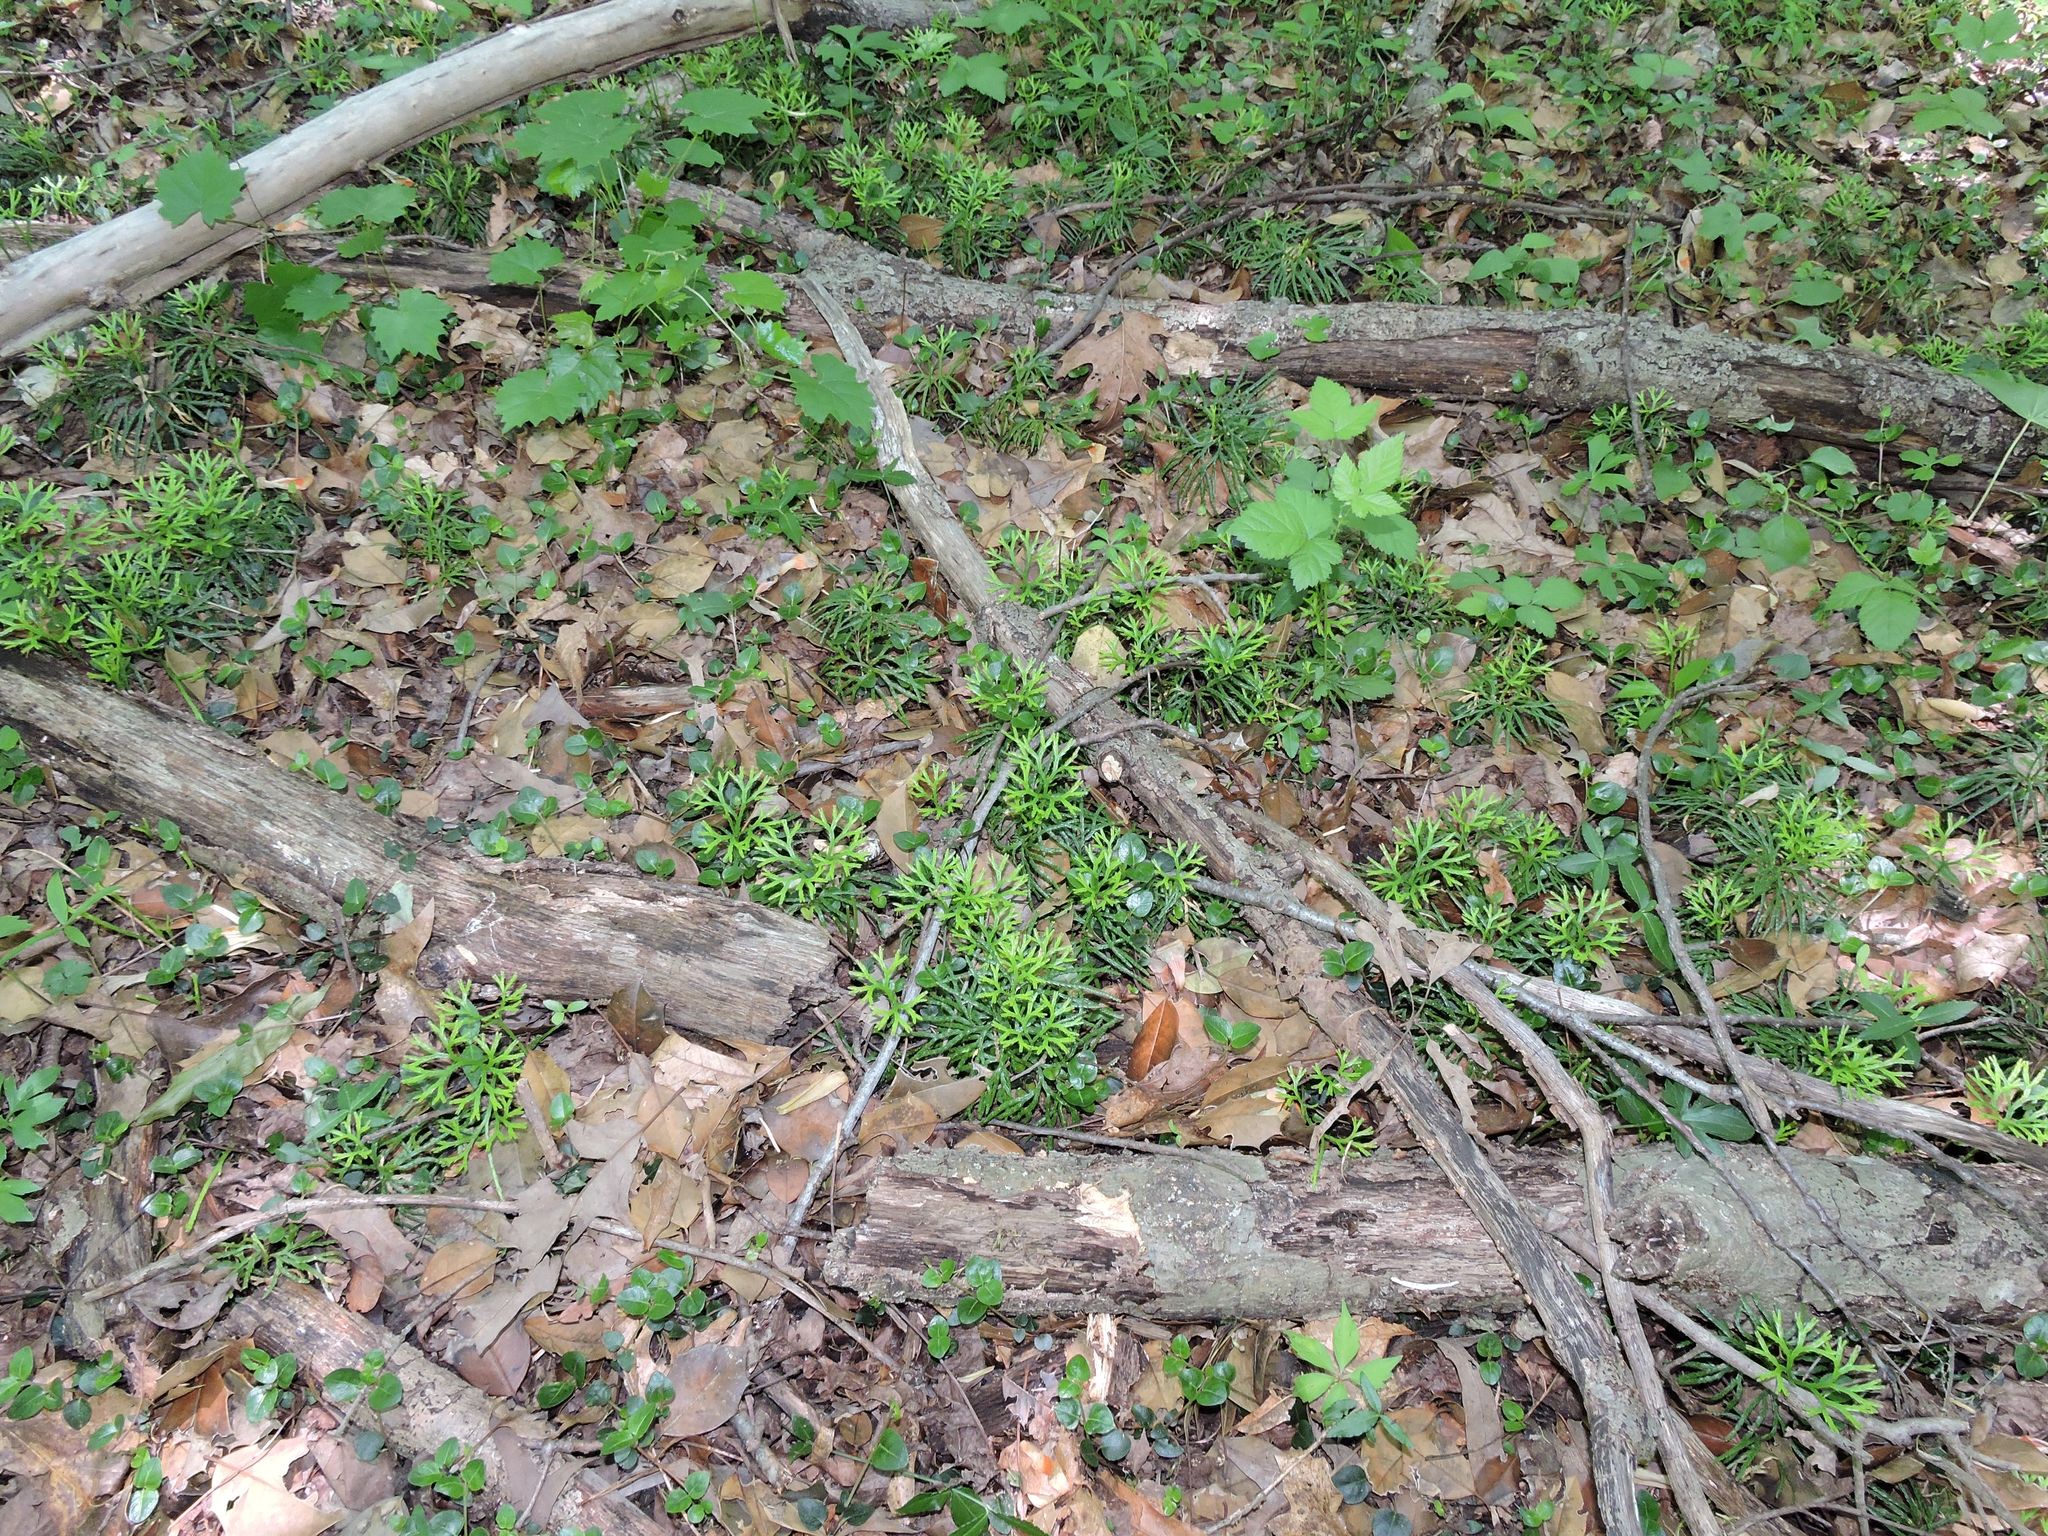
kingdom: Plantae
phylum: Tracheophyta
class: Lycopodiopsida
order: Lycopodiales
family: Lycopodiaceae
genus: Diphasiastrum
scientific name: Diphasiastrum digitatum
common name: Southern running-pine
